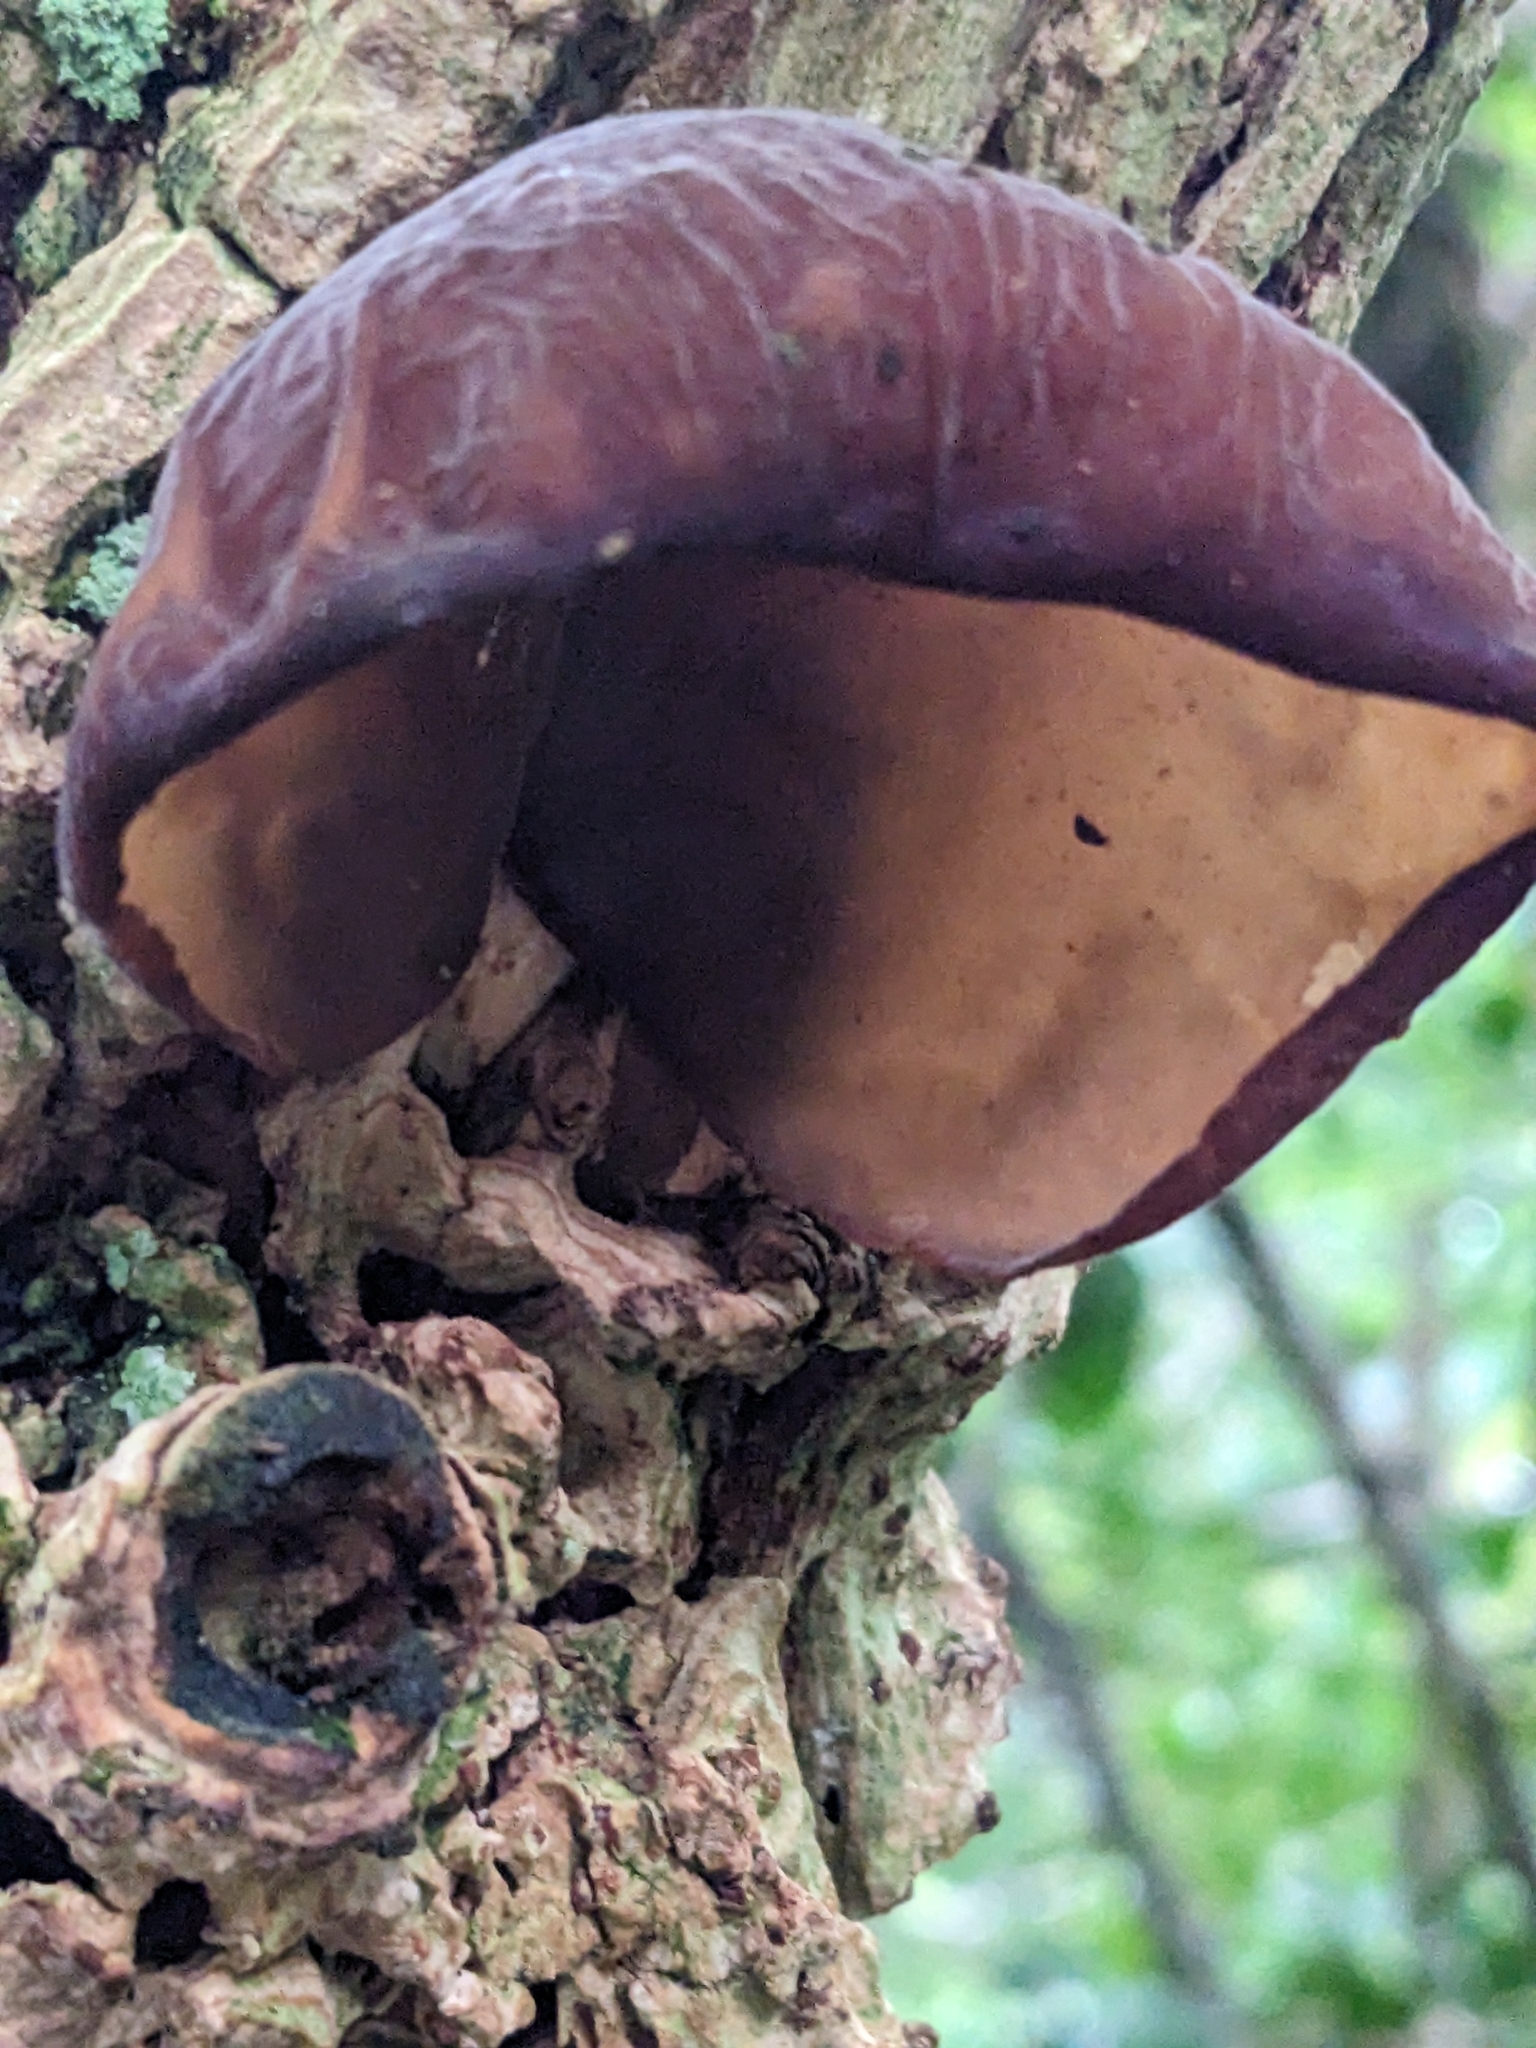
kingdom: Fungi
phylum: Basidiomycota
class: Agaricomycetes
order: Auriculariales
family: Auriculariaceae
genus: Auricularia
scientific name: Auricularia auricula-judae
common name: Jelly ear
